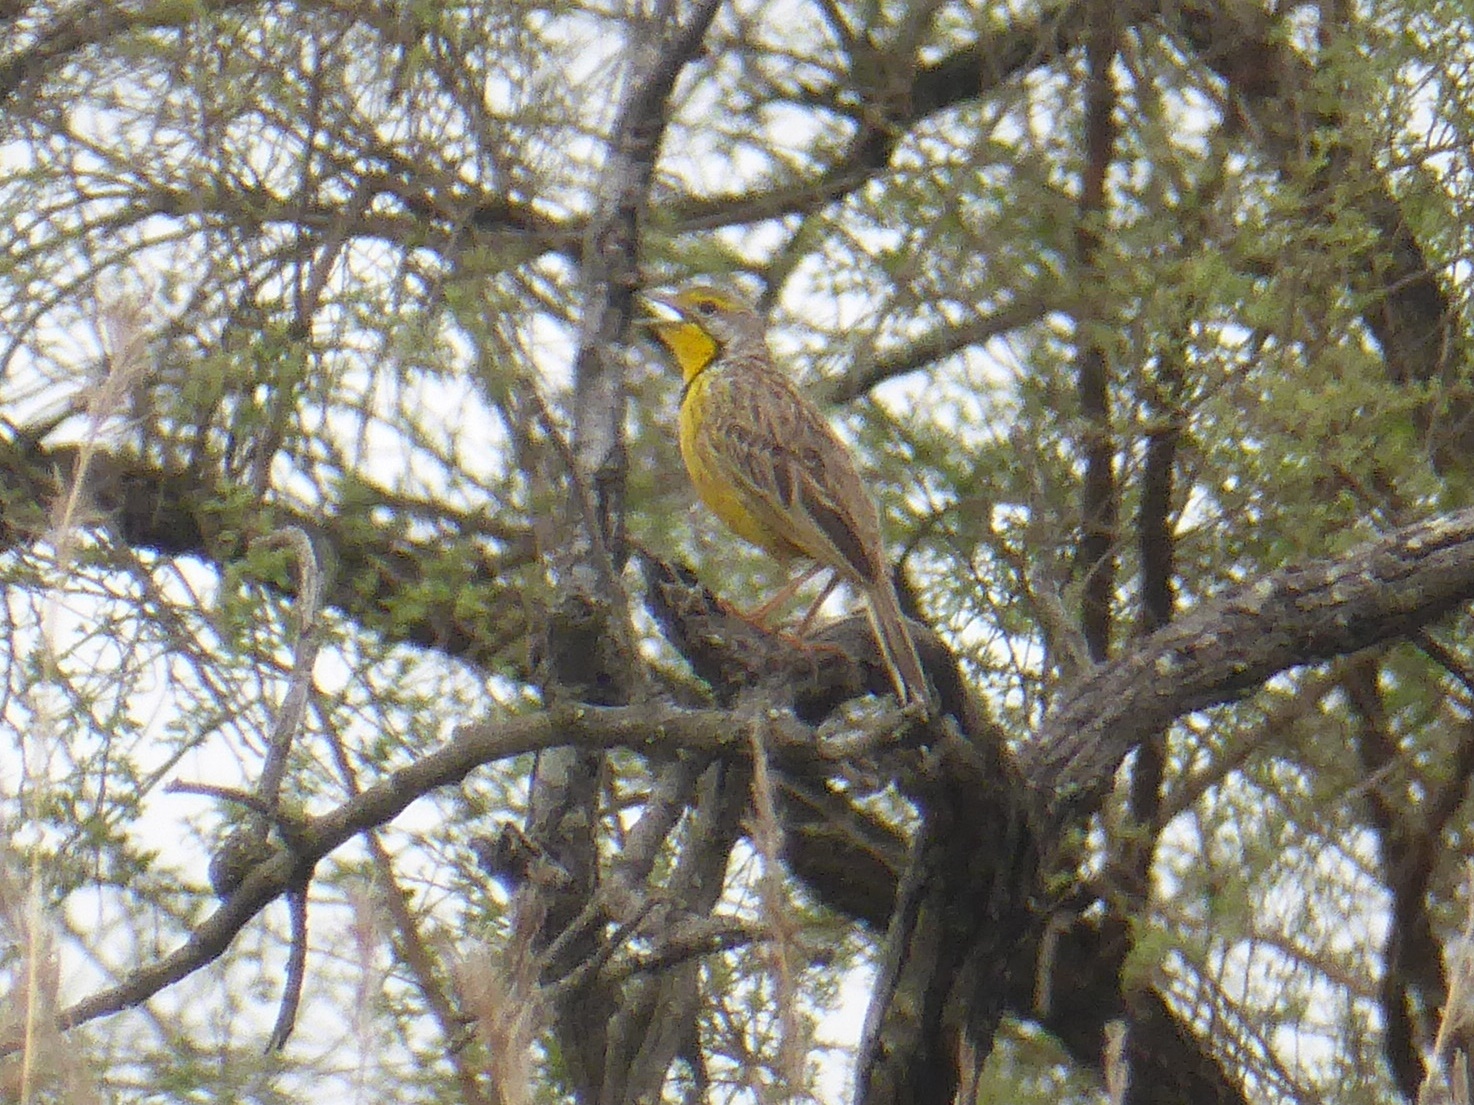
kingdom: Animalia
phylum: Chordata
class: Aves
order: Passeriformes
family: Motacillidae
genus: Macronyx
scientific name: Macronyx croceus
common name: Yellow-throated longclaw
